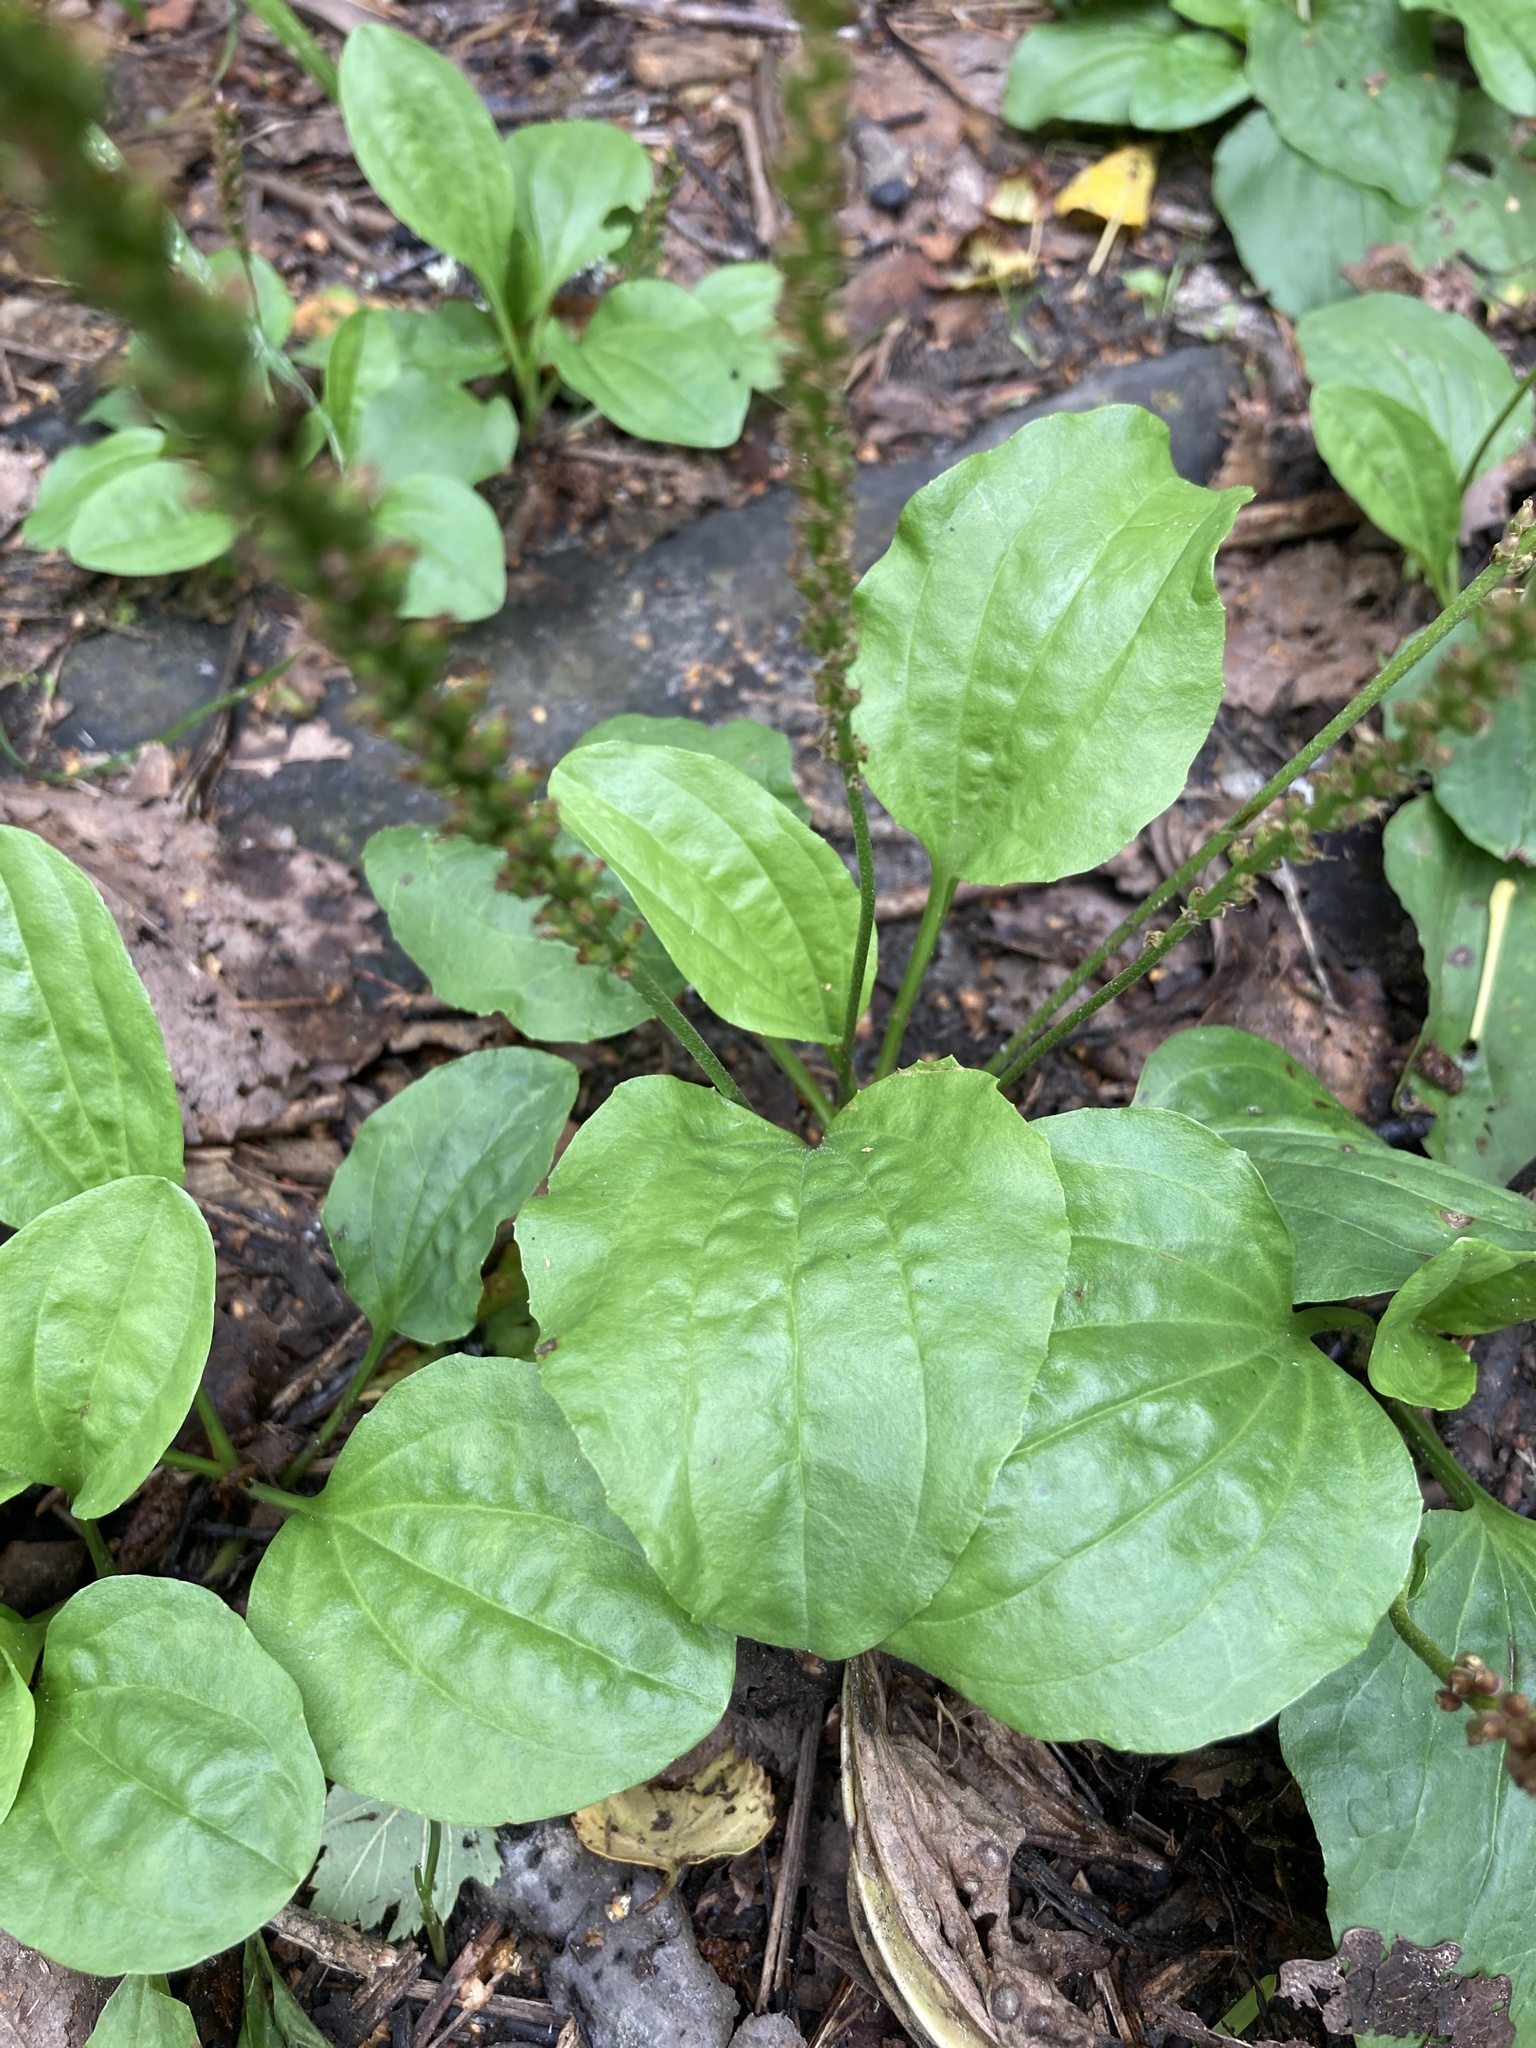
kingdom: Plantae
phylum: Tracheophyta
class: Magnoliopsida
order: Lamiales
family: Plantaginaceae
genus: Plantago
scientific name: Plantago major
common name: Common plantain
